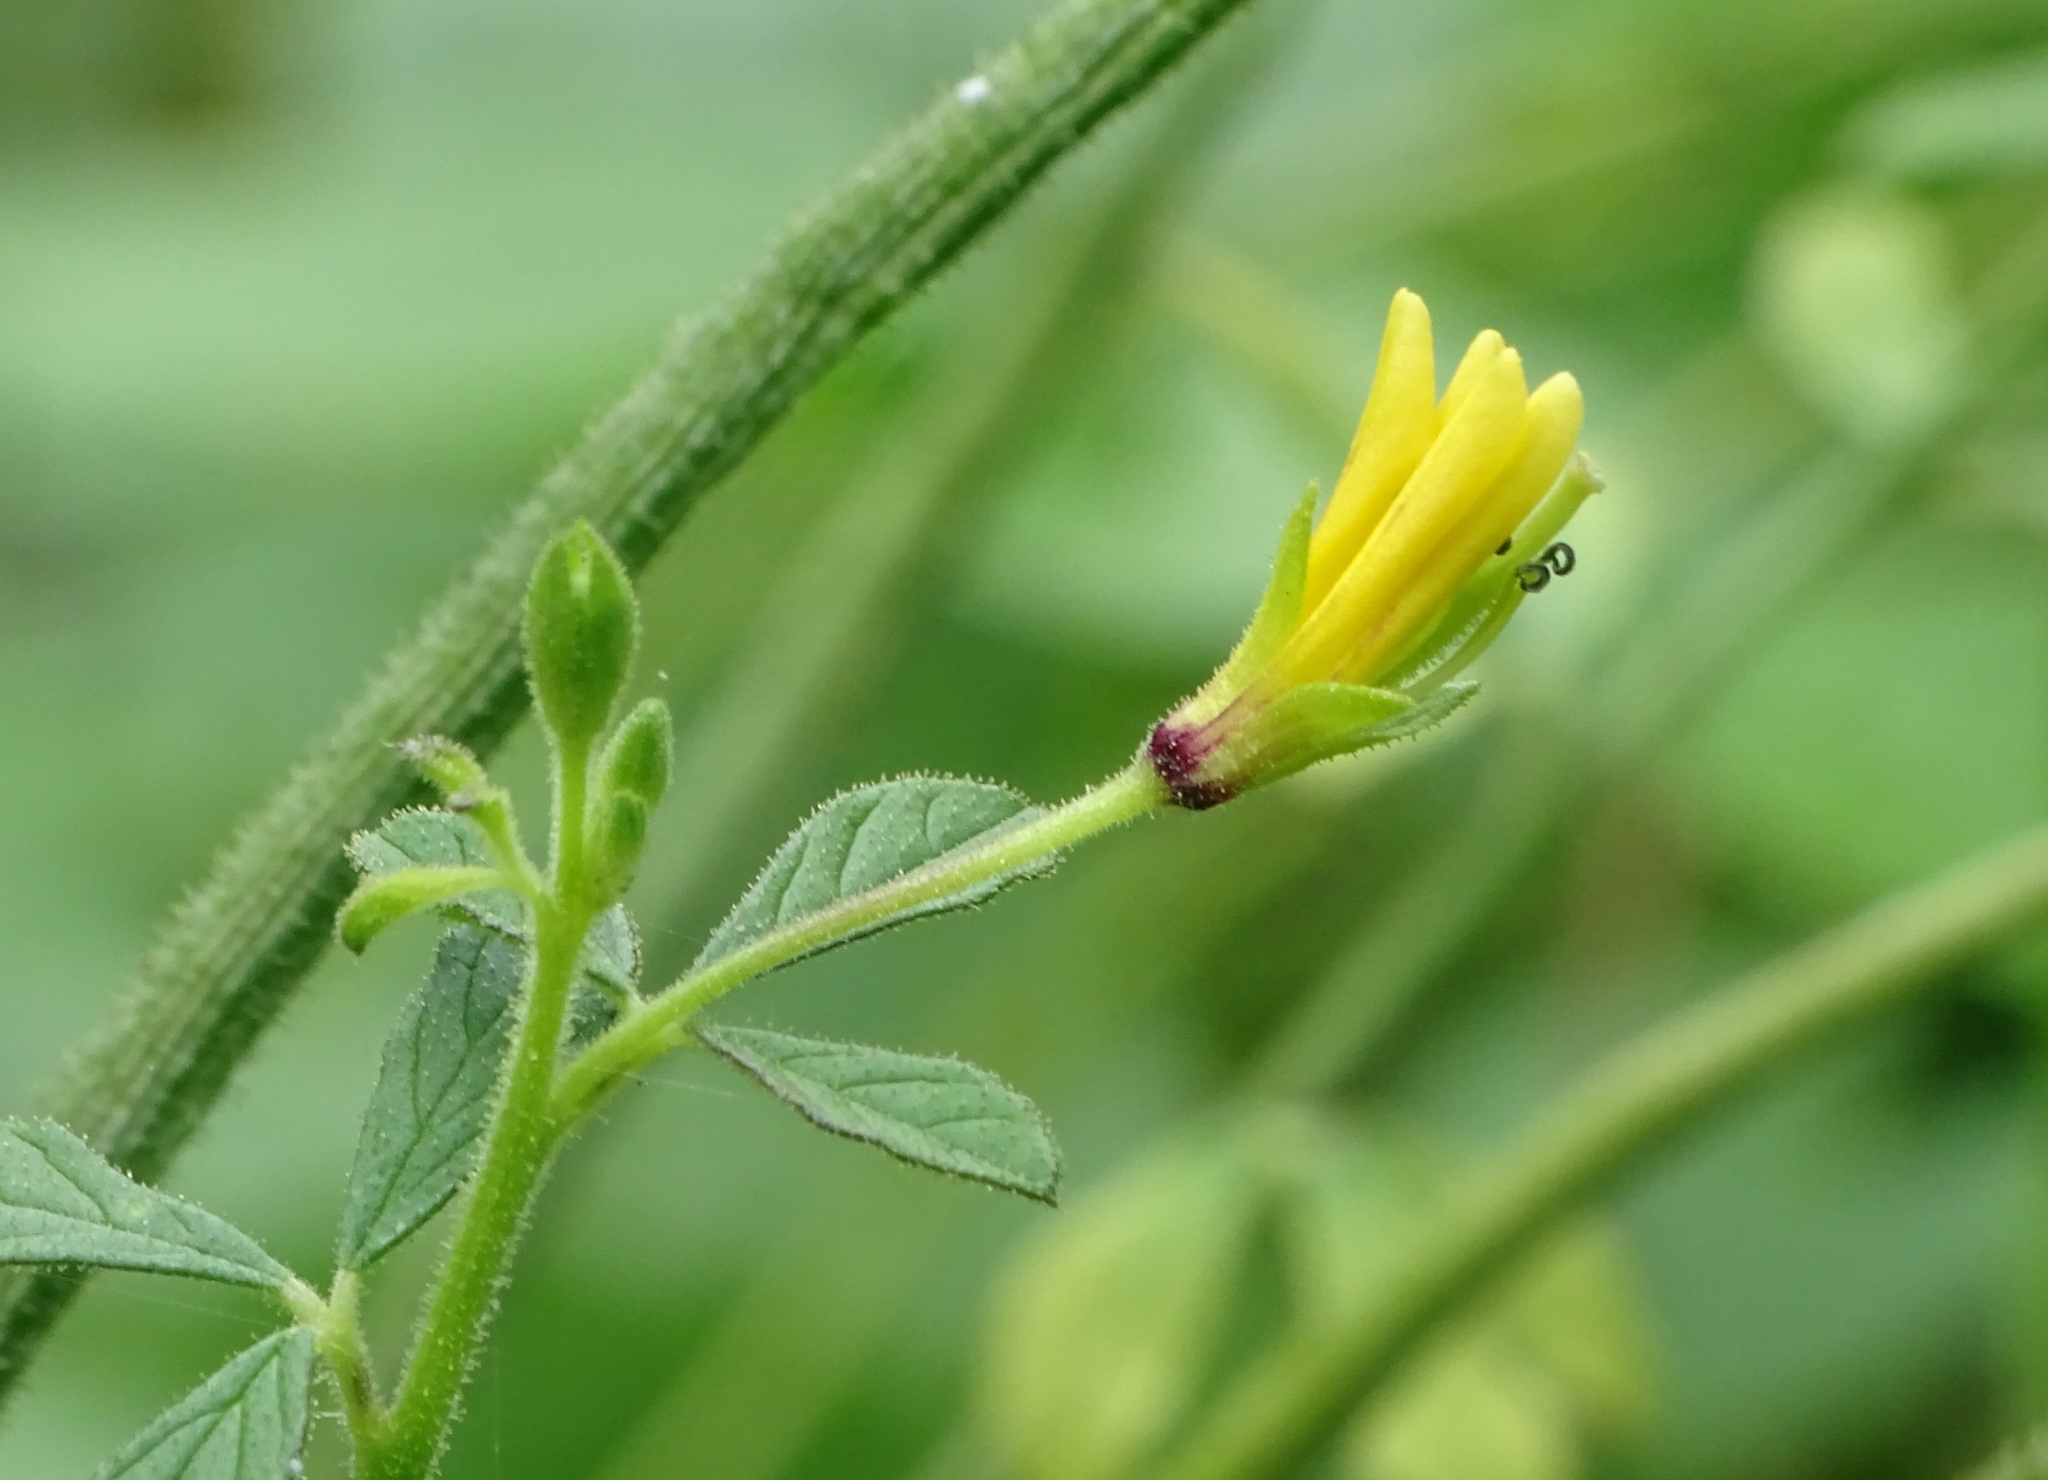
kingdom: Plantae
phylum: Tracheophyta
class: Magnoliopsida
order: Brassicales
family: Cleomaceae
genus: Arivela
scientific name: Arivela viscosa
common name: Asian spiderflower
